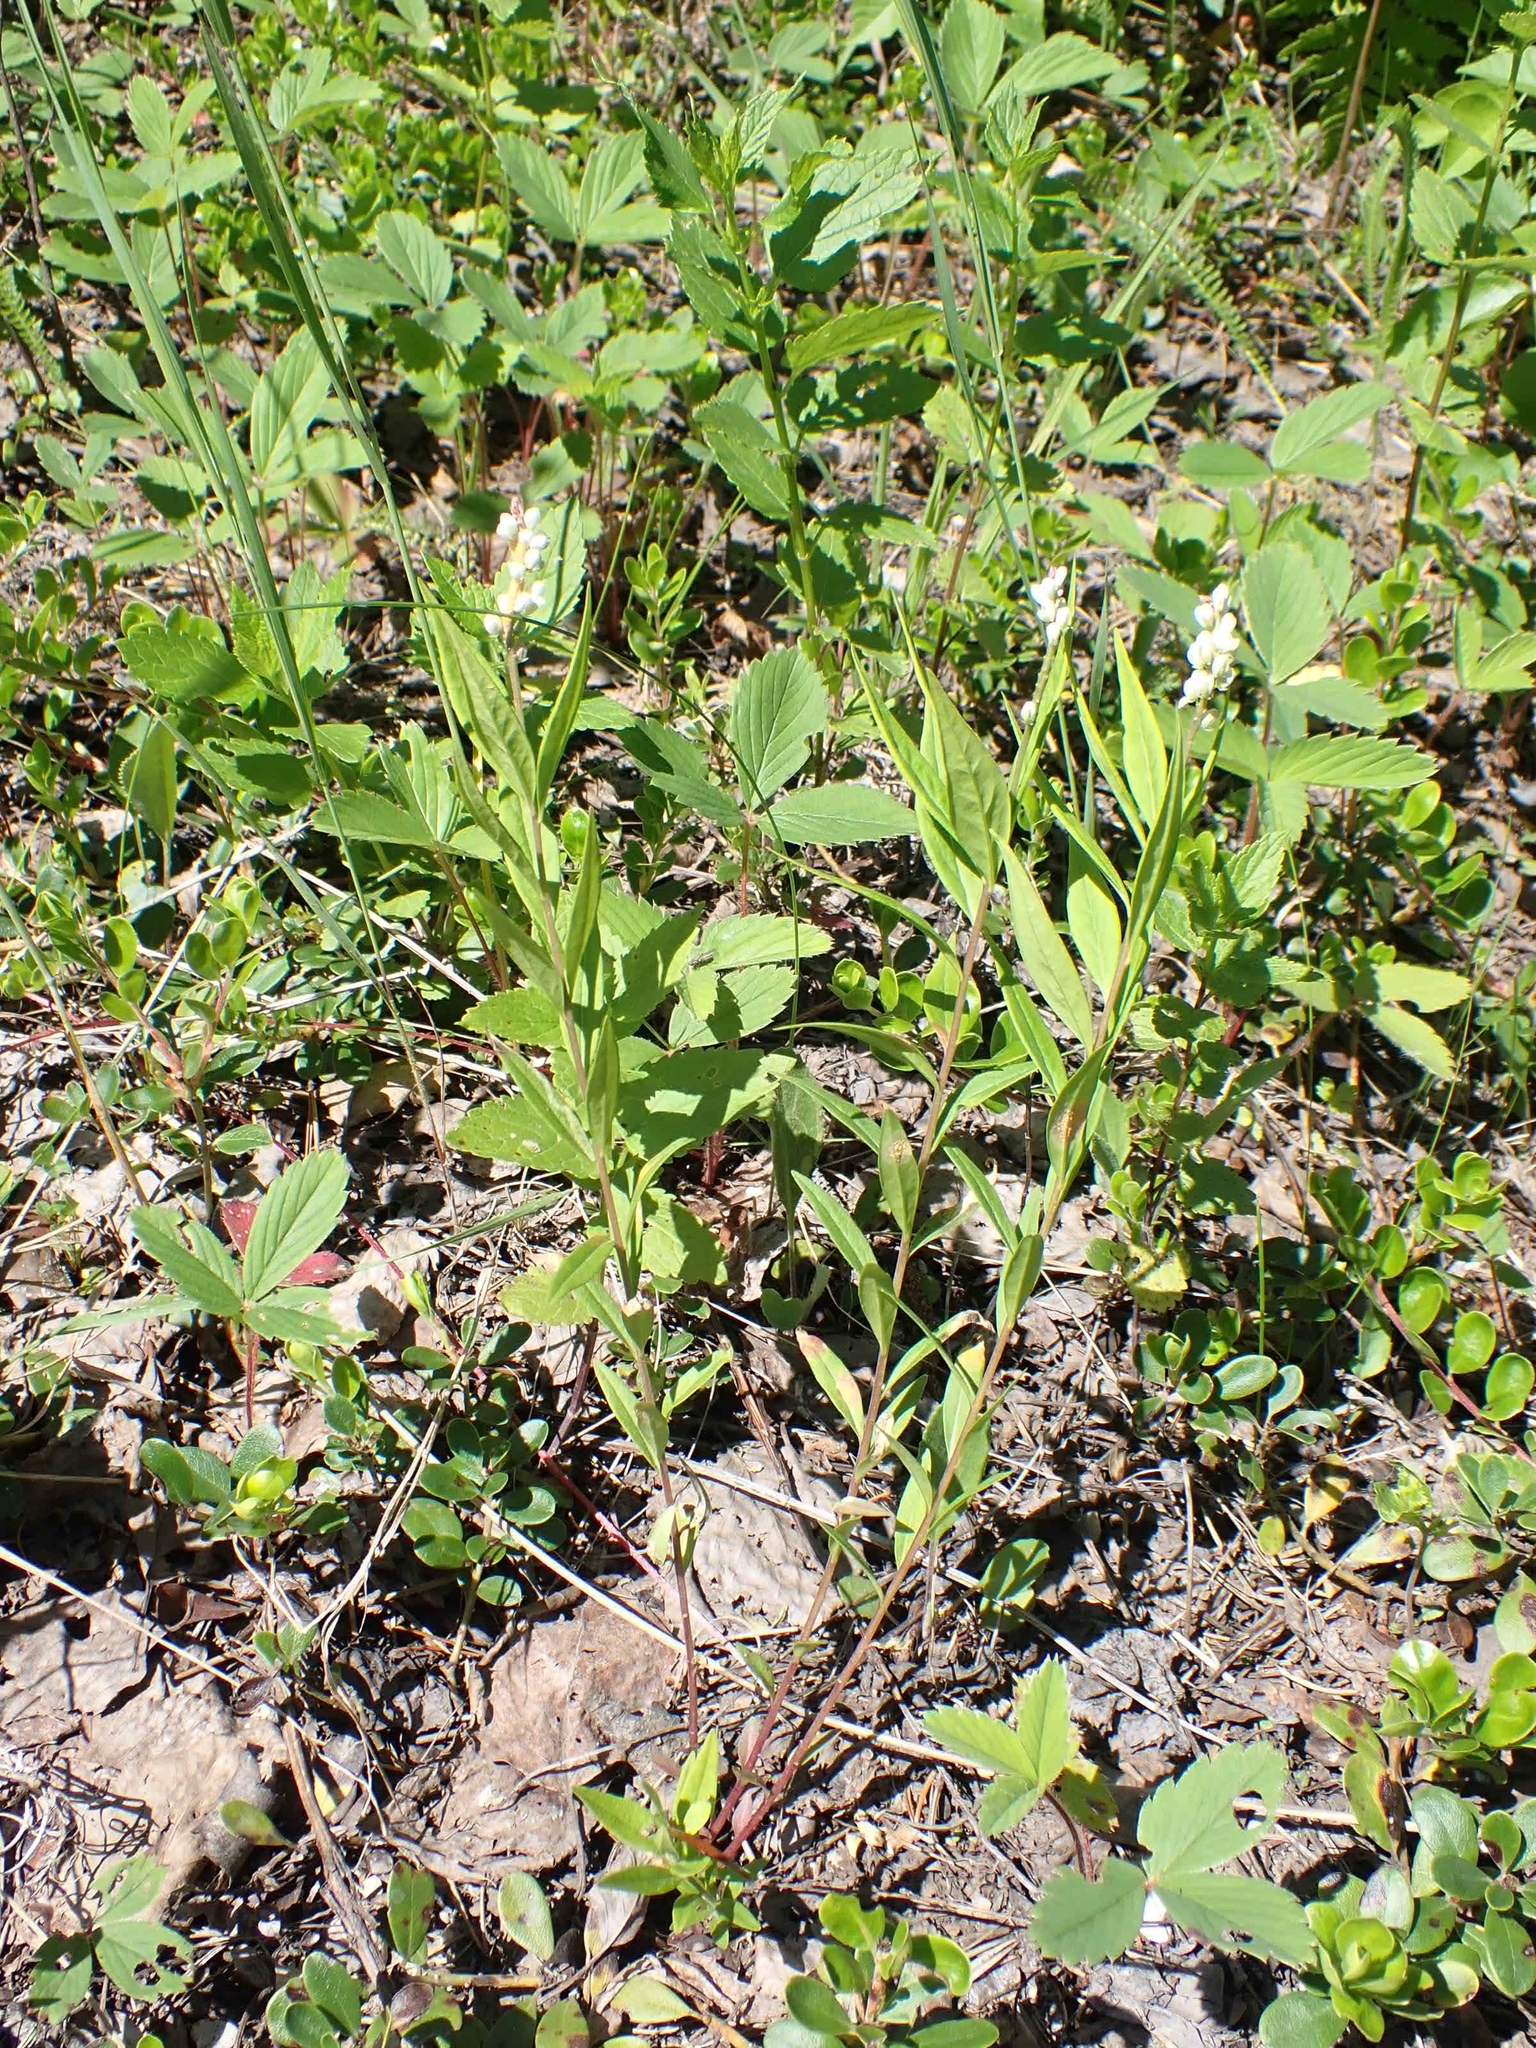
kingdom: Plantae
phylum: Tracheophyta
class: Magnoliopsida
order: Fabales
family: Polygalaceae
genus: Polygala
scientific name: Polygala senega
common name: Seneca snakeroot
